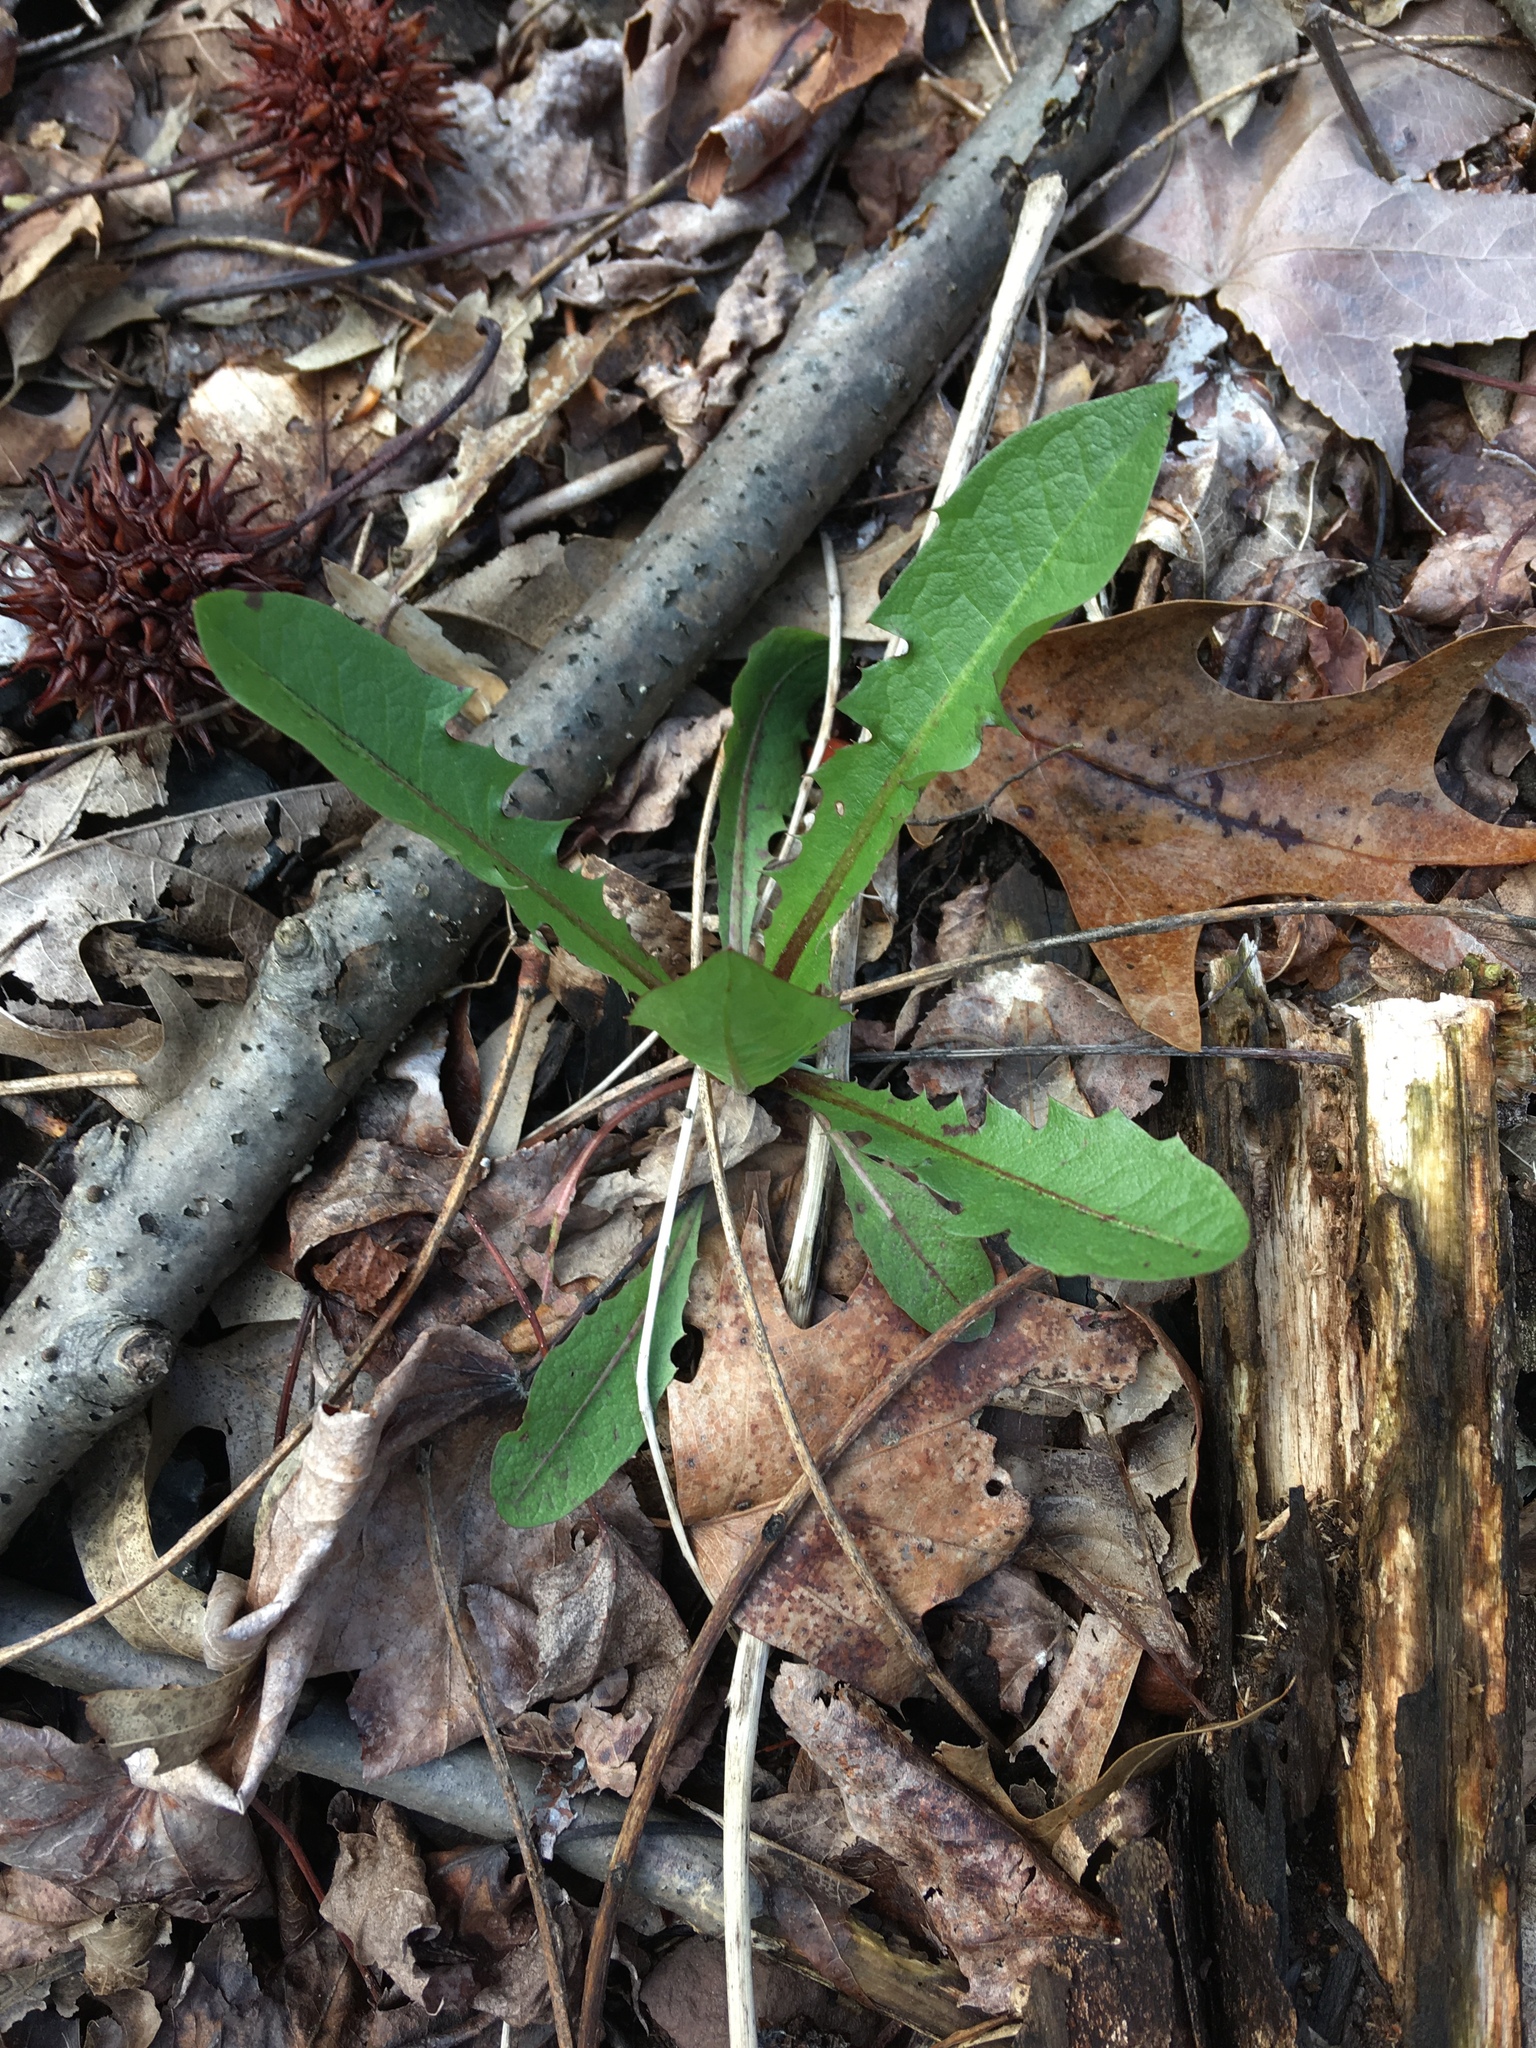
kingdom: Plantae
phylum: Tracheophyta
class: Magnoliopsida
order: Asterales
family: Asteraceae
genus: Taraxacum
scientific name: Taraxacum officinale
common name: Common dandelion
